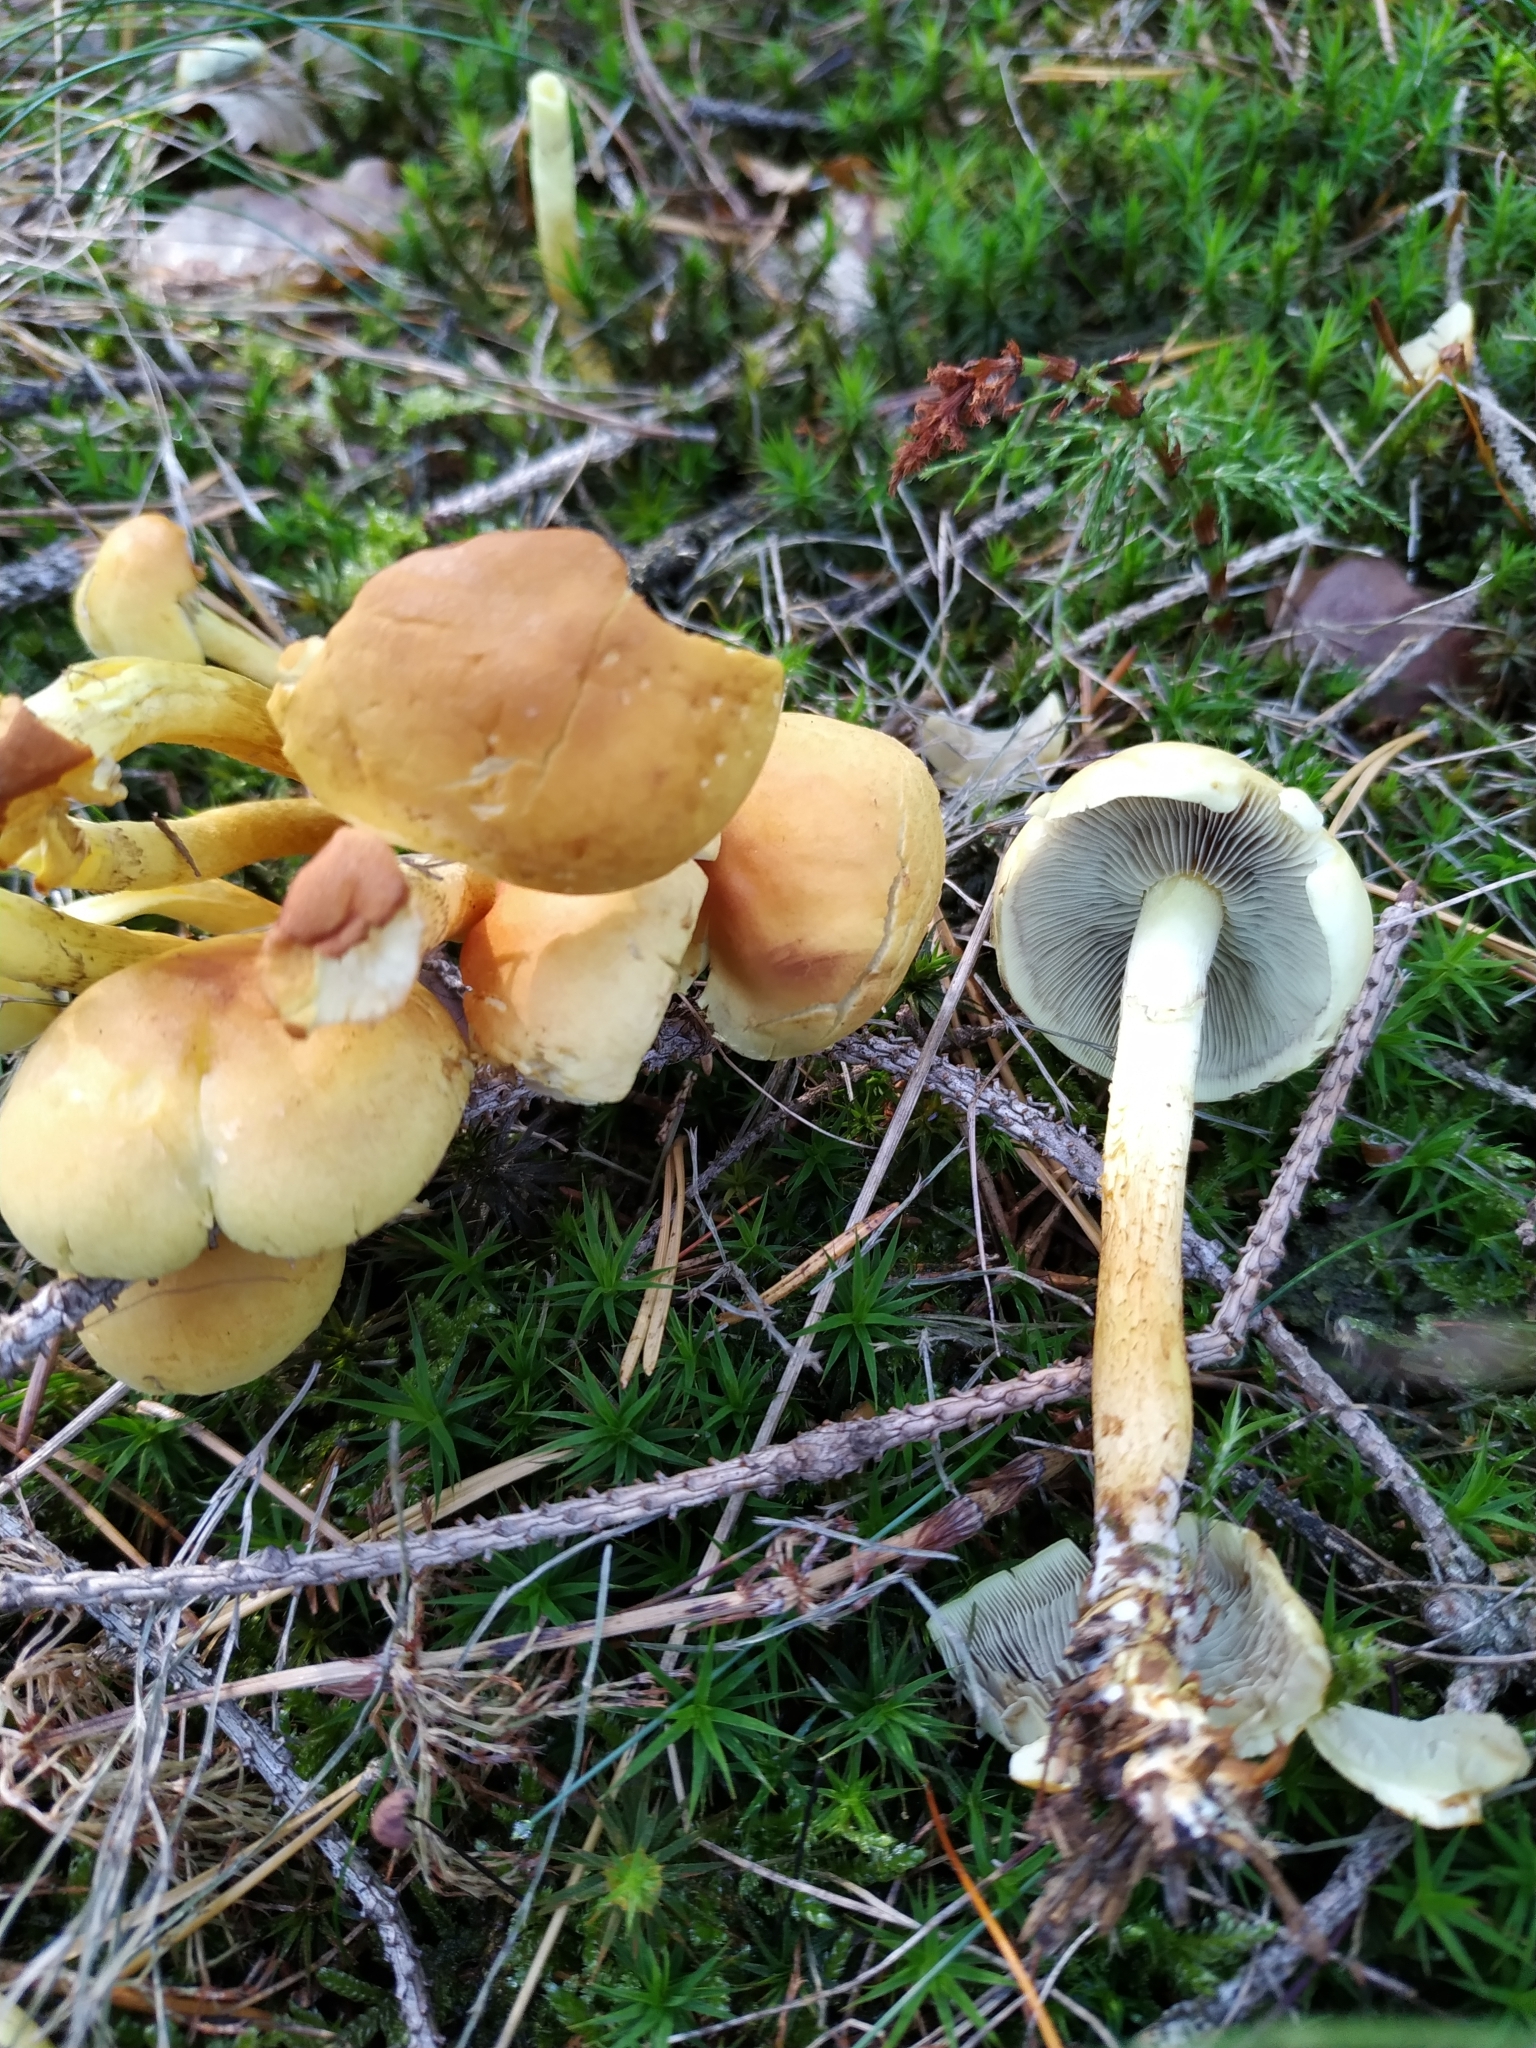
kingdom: Fungi
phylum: Basidiomycota
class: Agaricomycetes
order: Agaricales
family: Strophariaceae
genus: Hypholoma
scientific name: Hypholoma fasciculare
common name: Sulphur tuft
